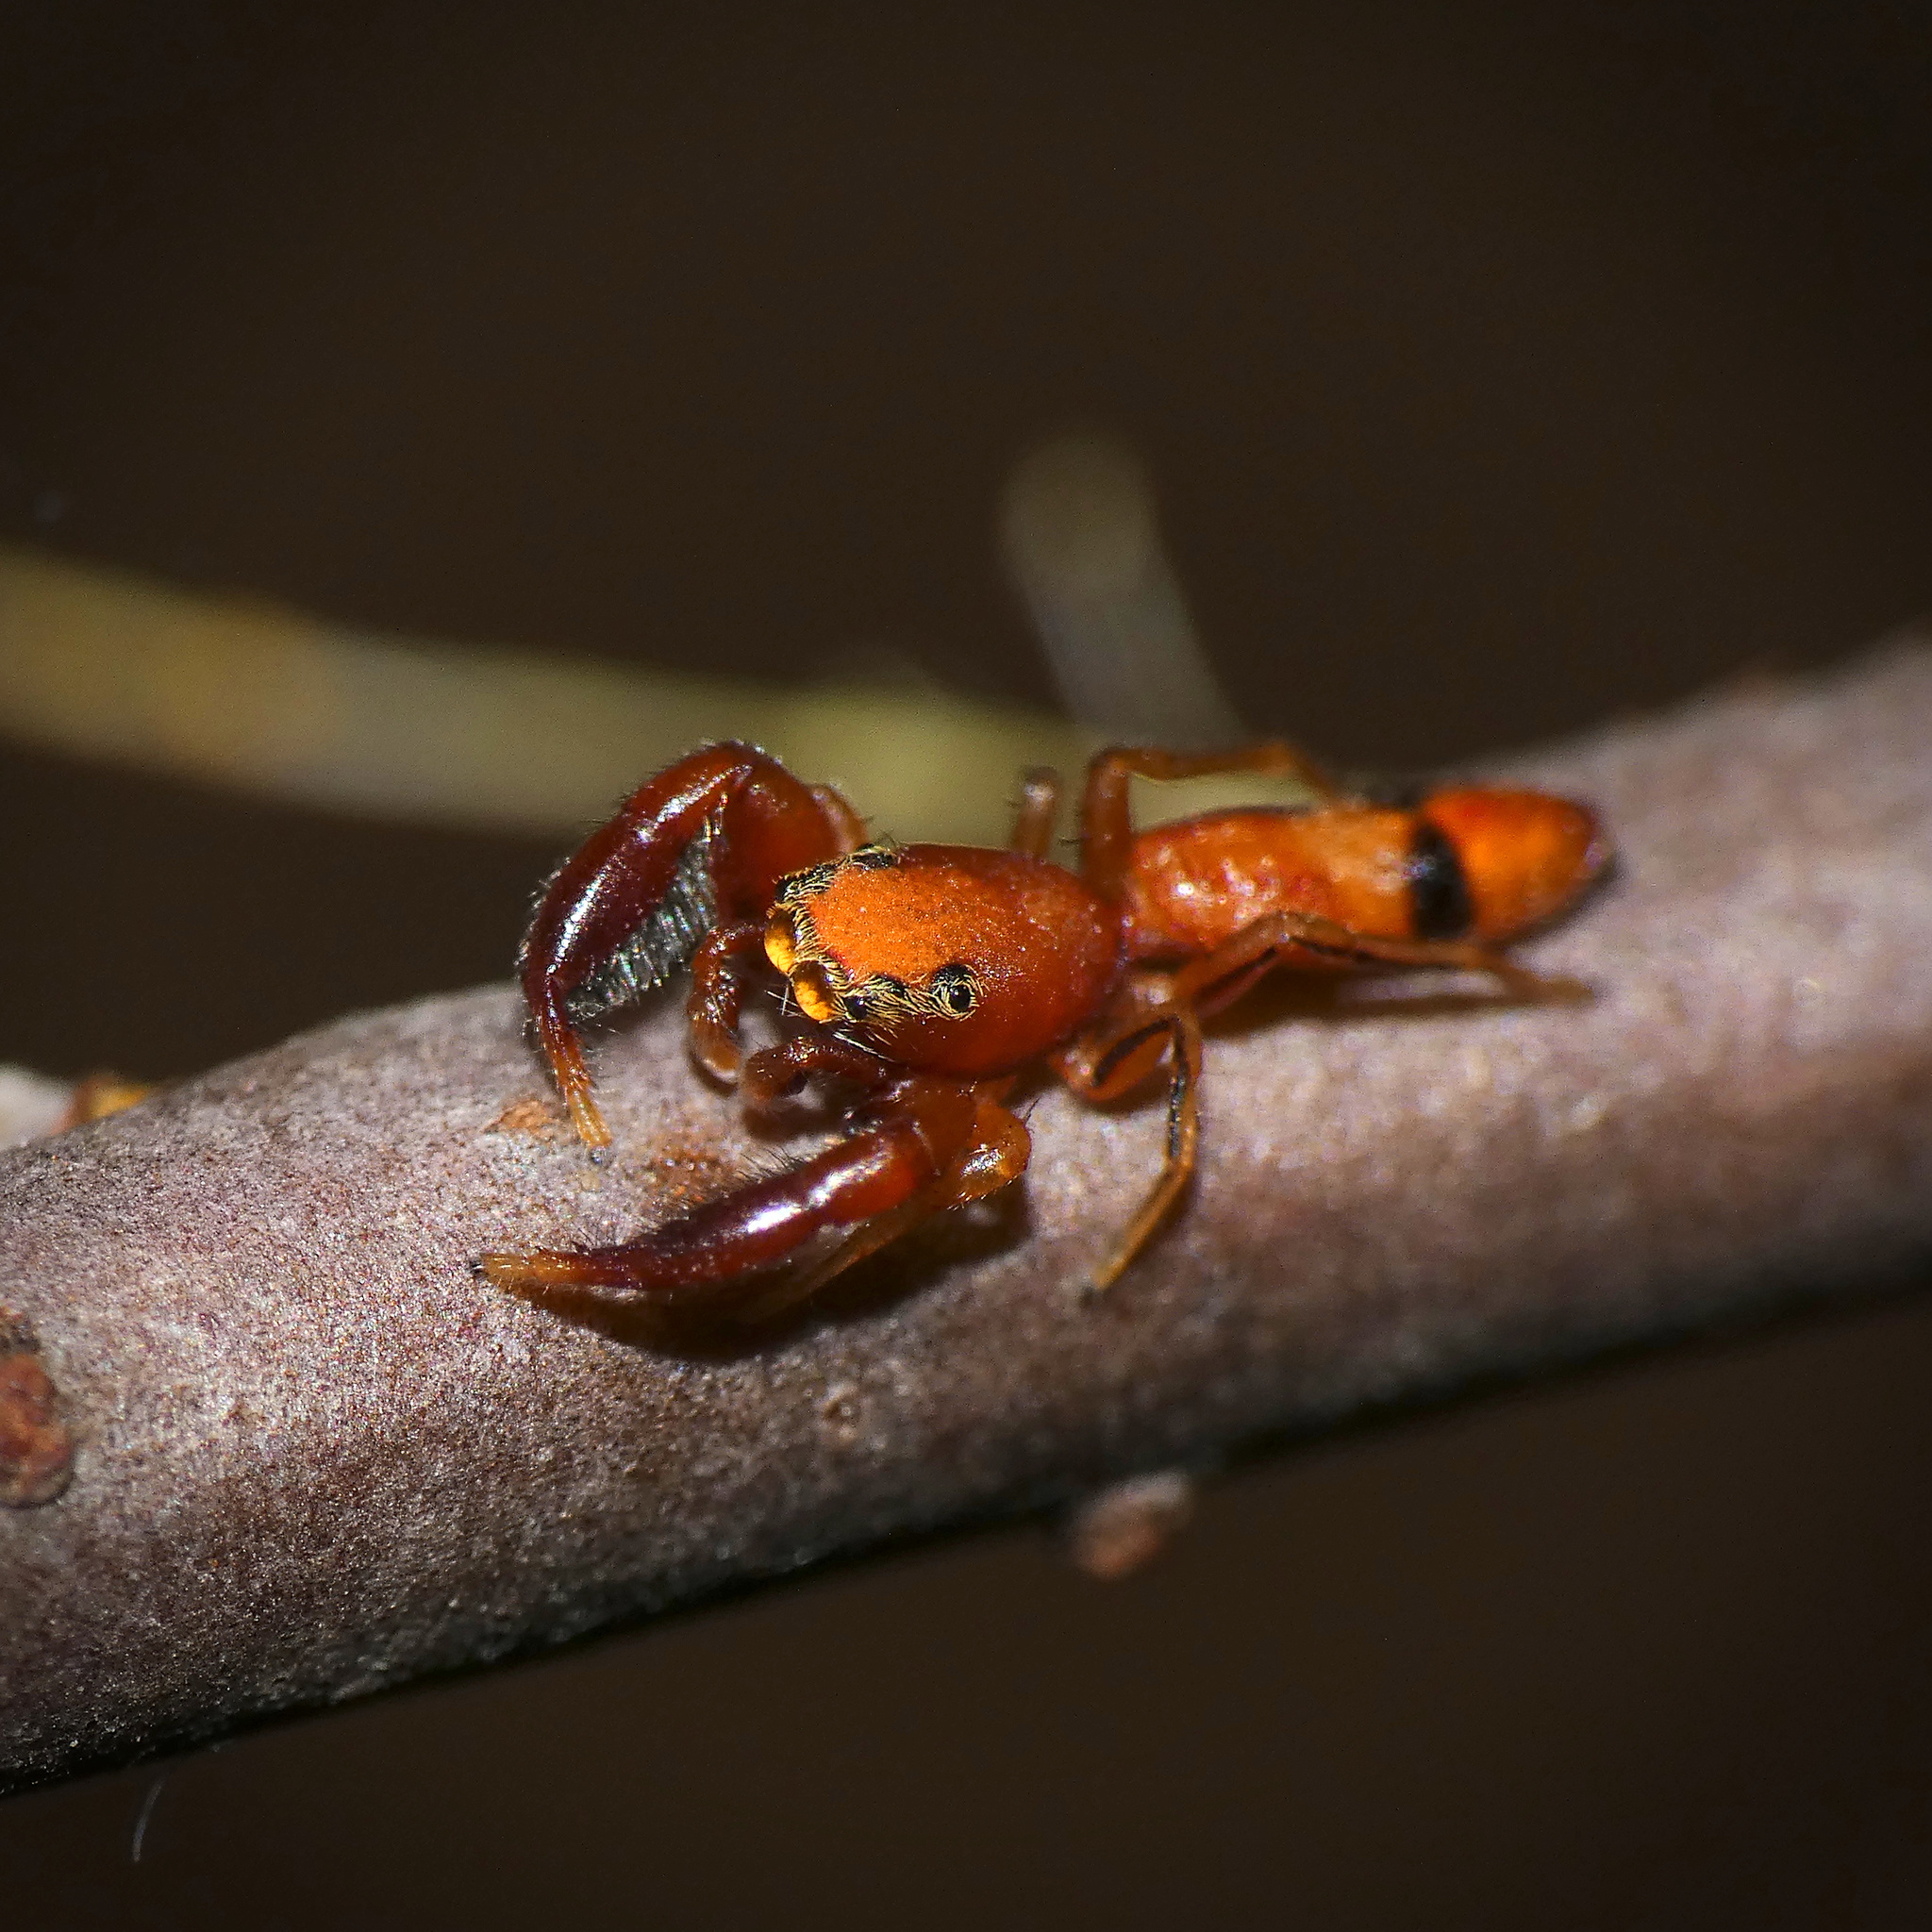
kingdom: Animalia
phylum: Arthropoda
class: Arachnida
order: Araneae
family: Salticidae
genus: Planamarengo
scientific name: Planamarengo bimaculata
